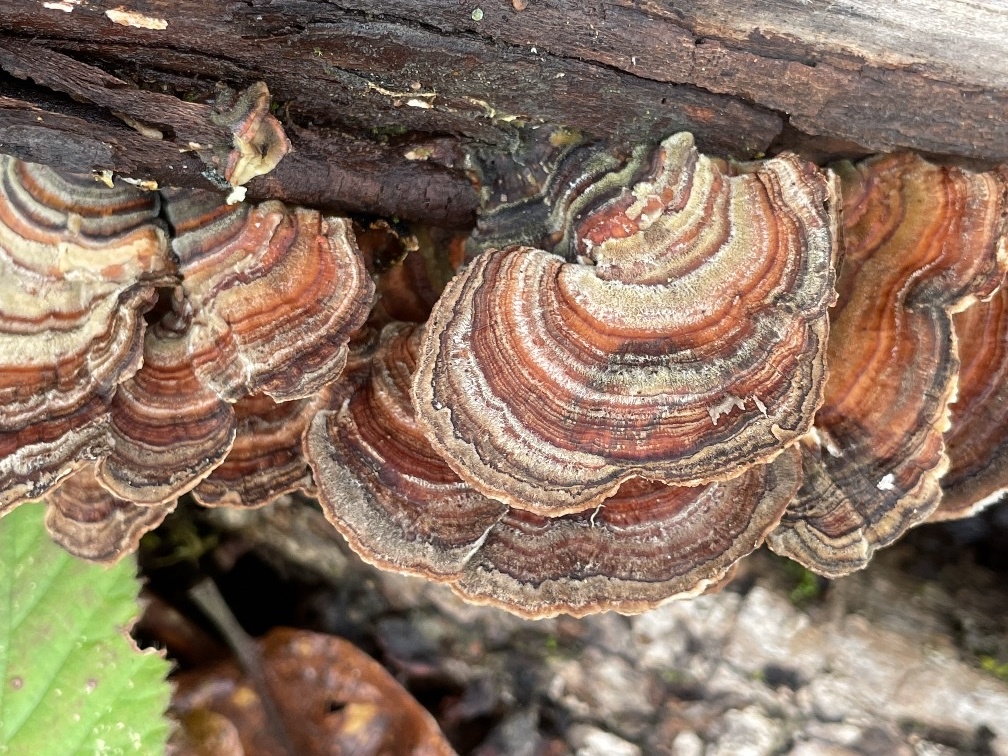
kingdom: Fungi
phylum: Basidiomycota
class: Agaricomycetes
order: Polyporales
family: Polyporaceae
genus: Trametes
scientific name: Trametes versicolor
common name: Turkeytail
